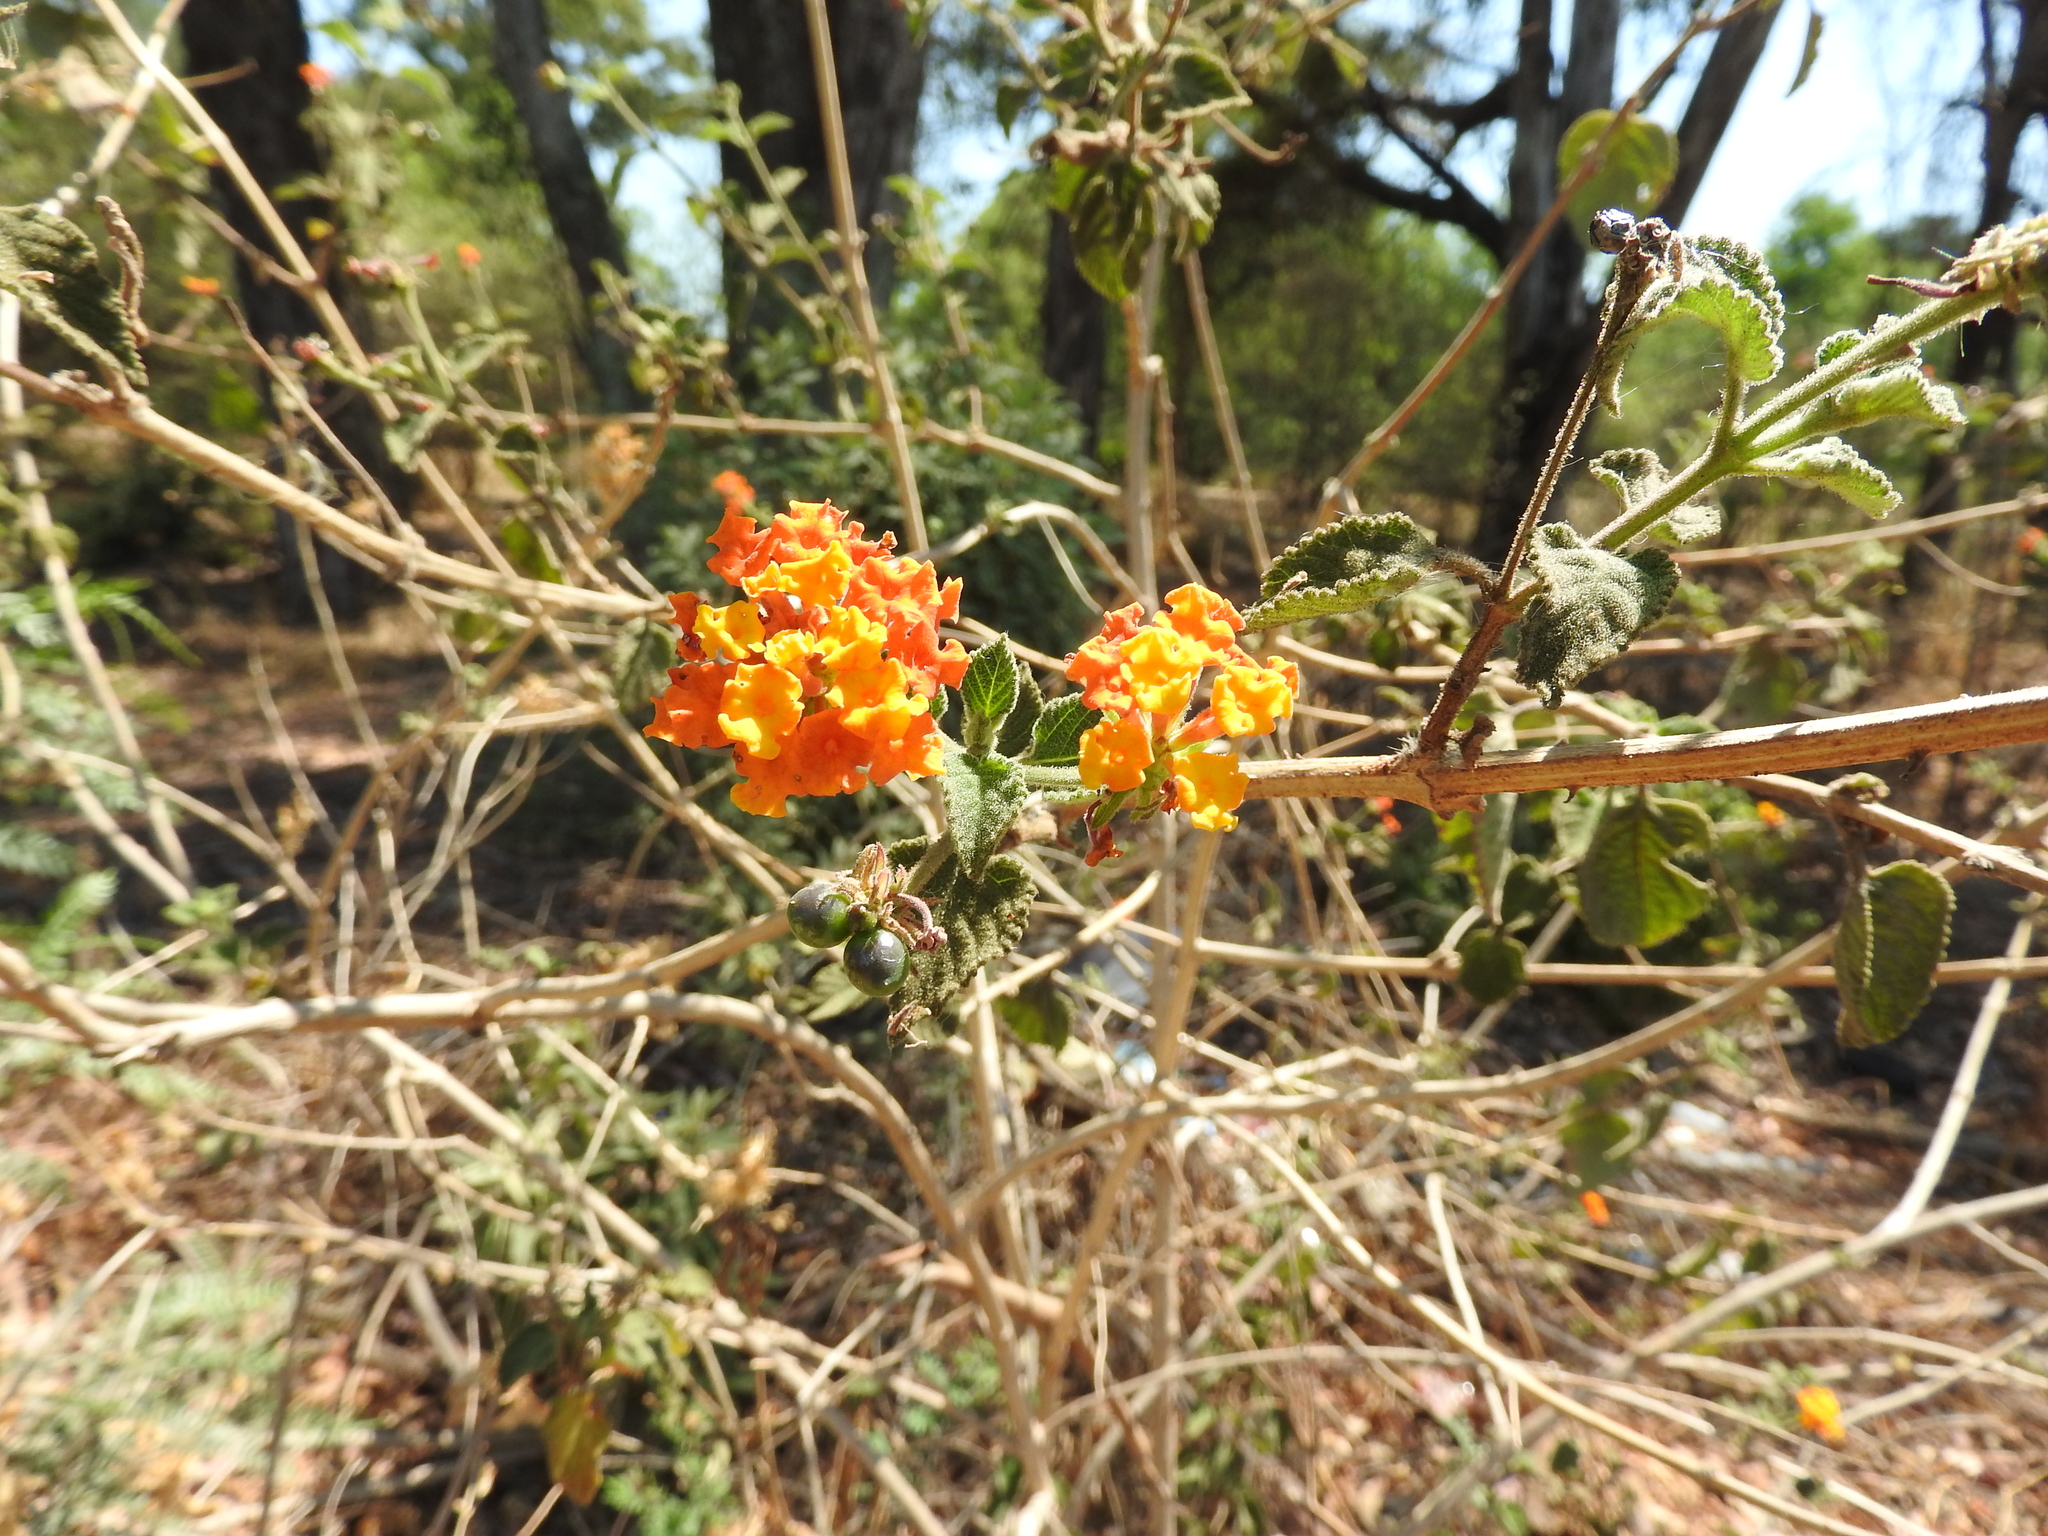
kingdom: Plantae
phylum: Tracheophyta
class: Magnoliopsida
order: Lamiales
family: Verbenaceae
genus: Lantana
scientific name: Lantana camara
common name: Lantana
